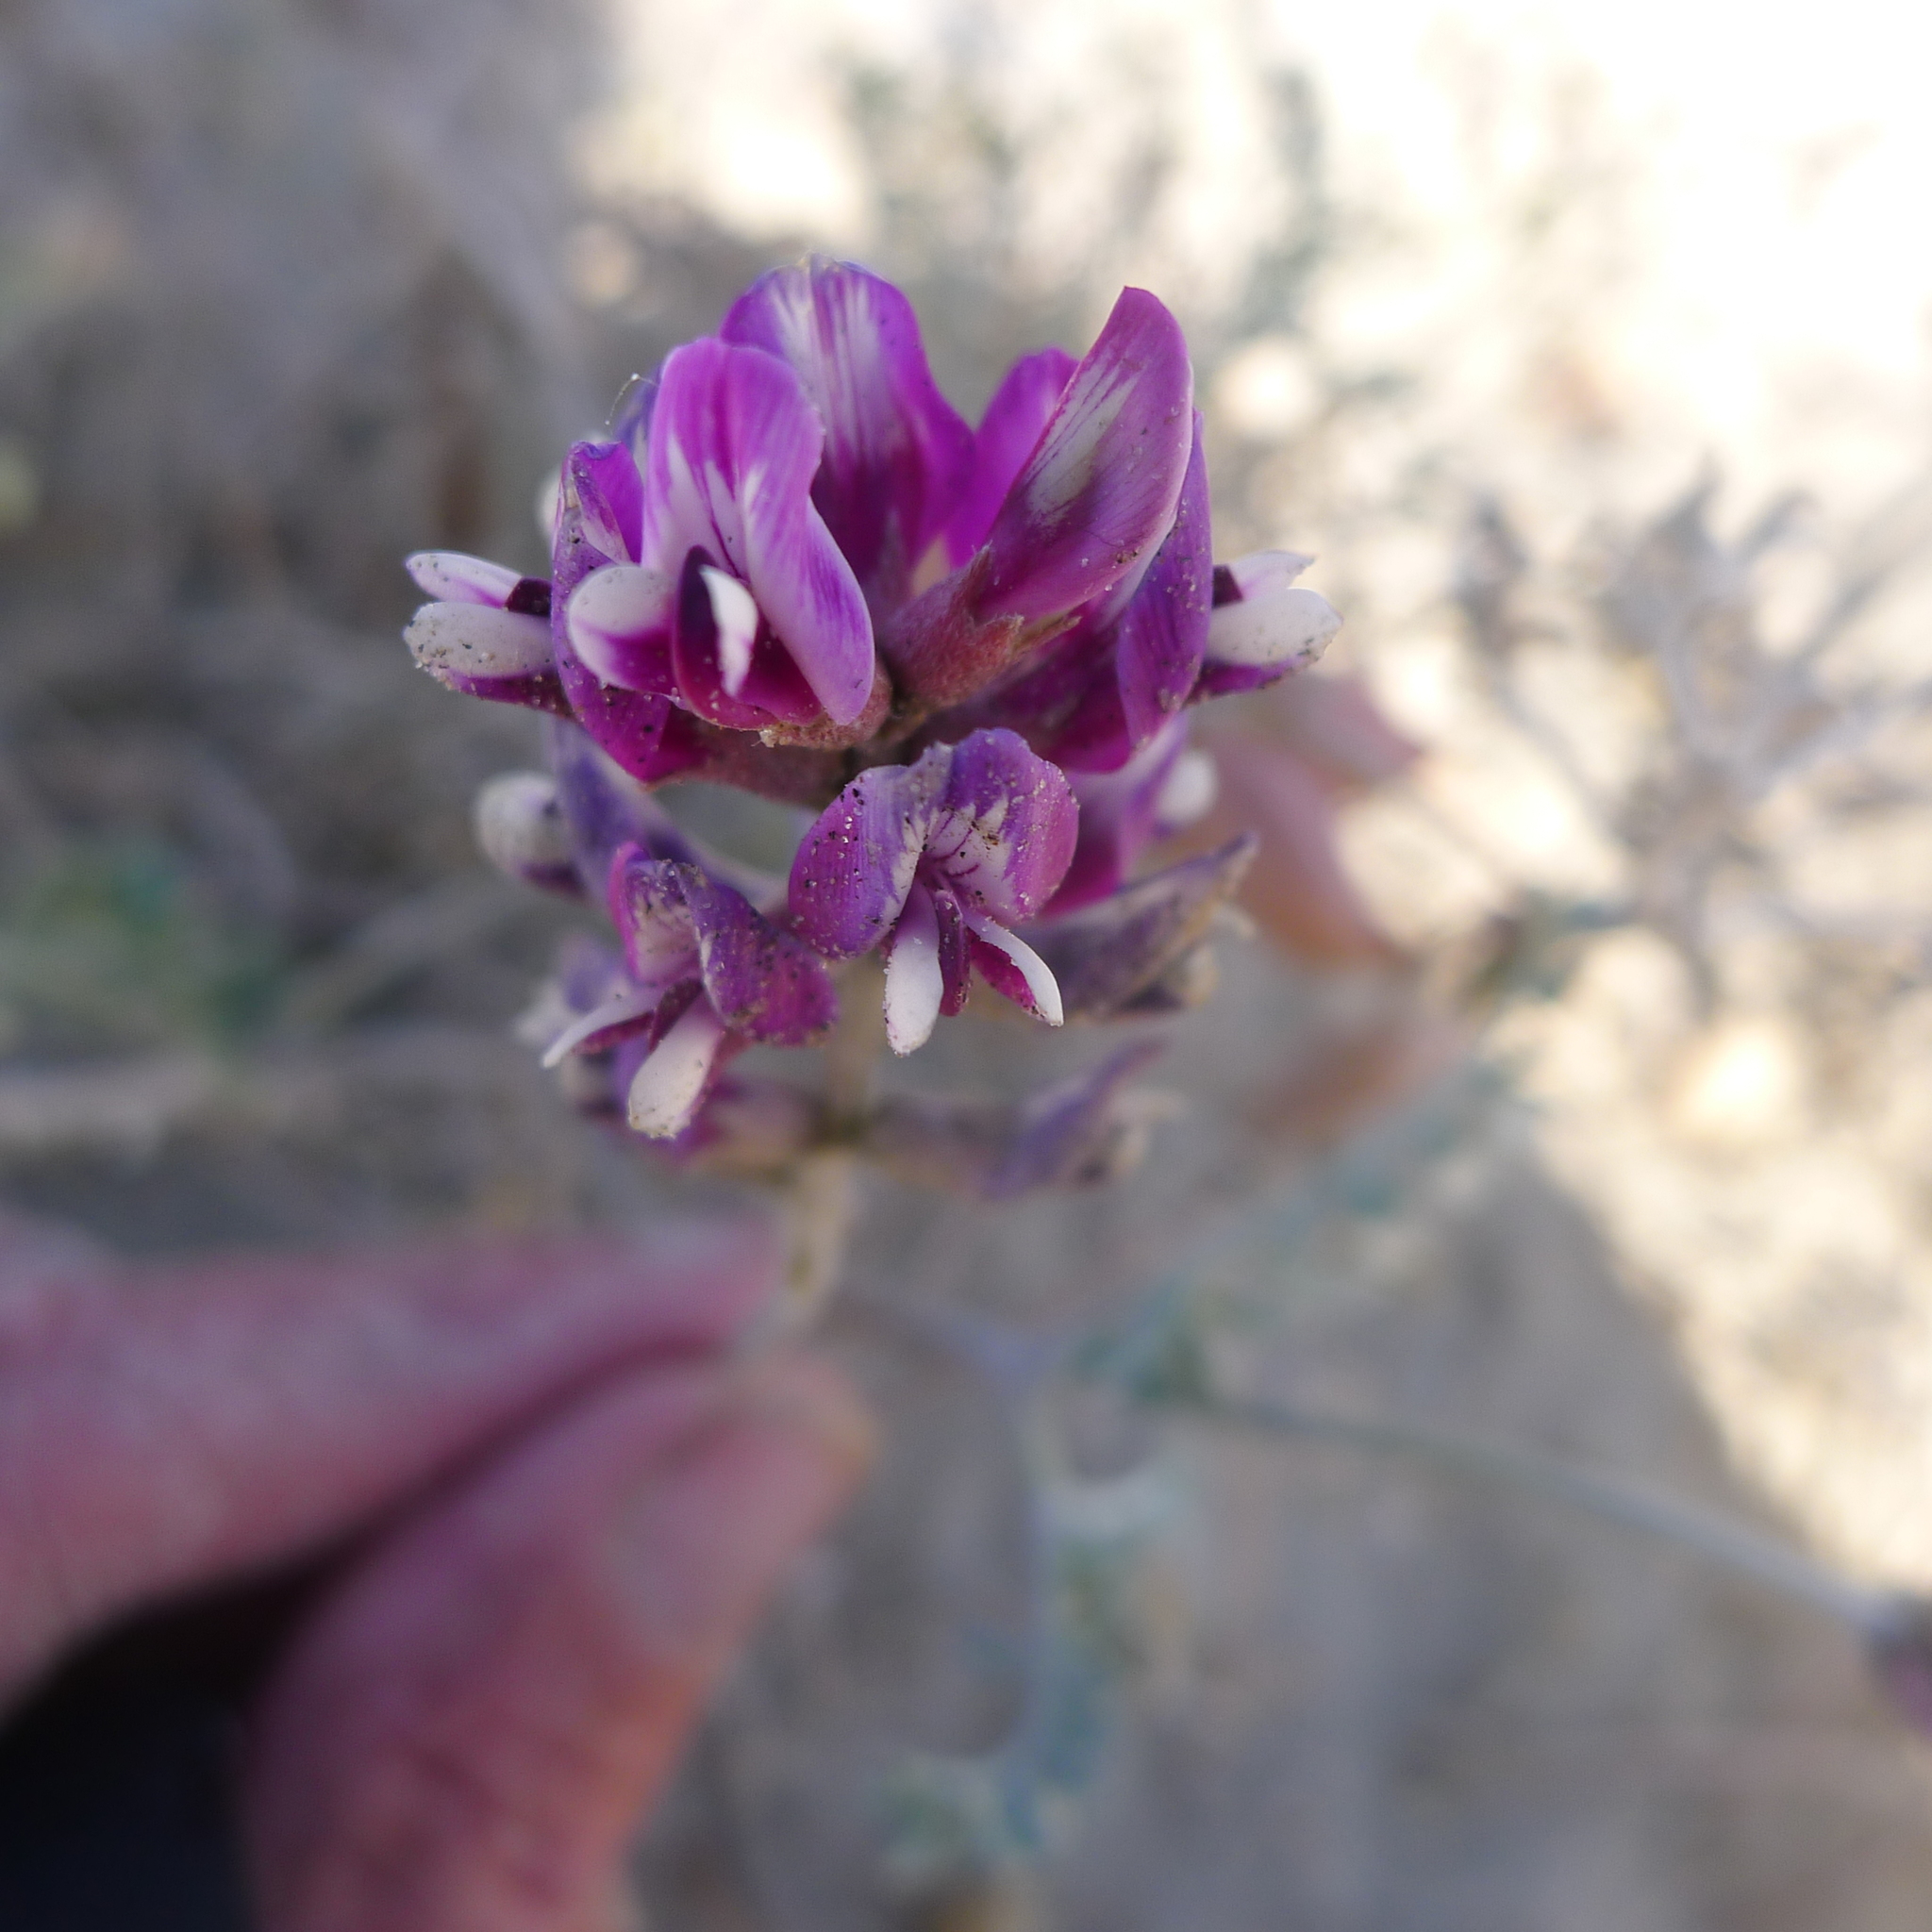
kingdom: Plantae
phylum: Tracheophyta
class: Magnoliopsida
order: Fabales
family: Fabaceae
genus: Astragalus
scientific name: Astragalus magdalenae
